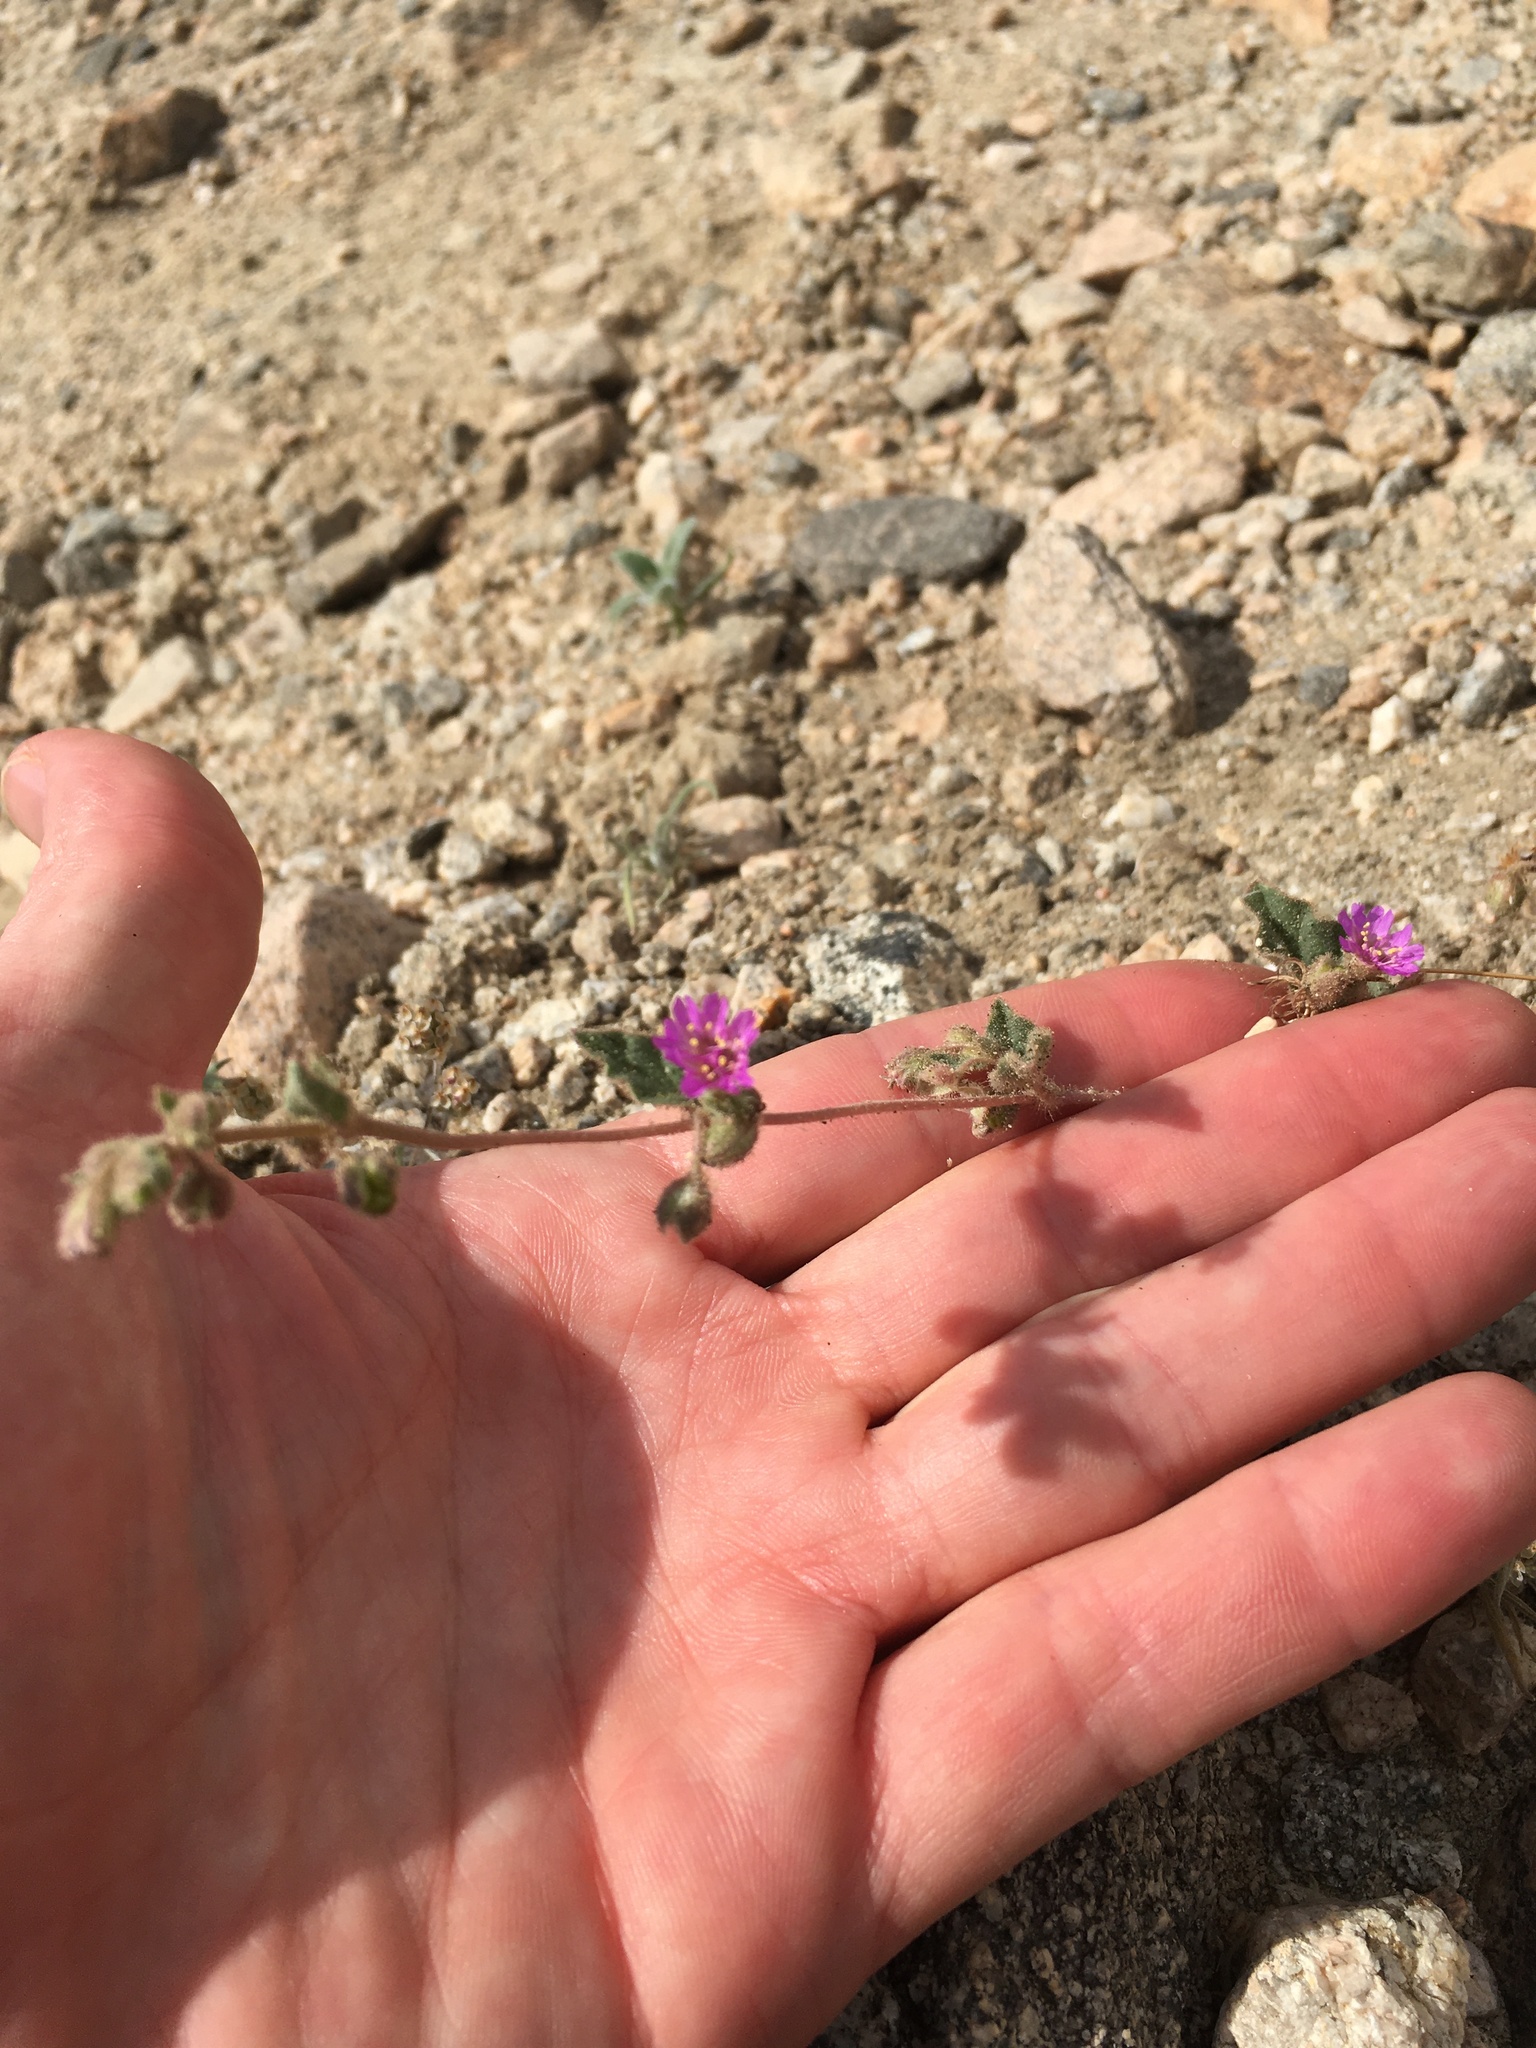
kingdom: Plantae
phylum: Tracheophyta
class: Magnoliopsida
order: Caryophyllales
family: Nyctaginaceae
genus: Allionia
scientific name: Allionia incarnata
